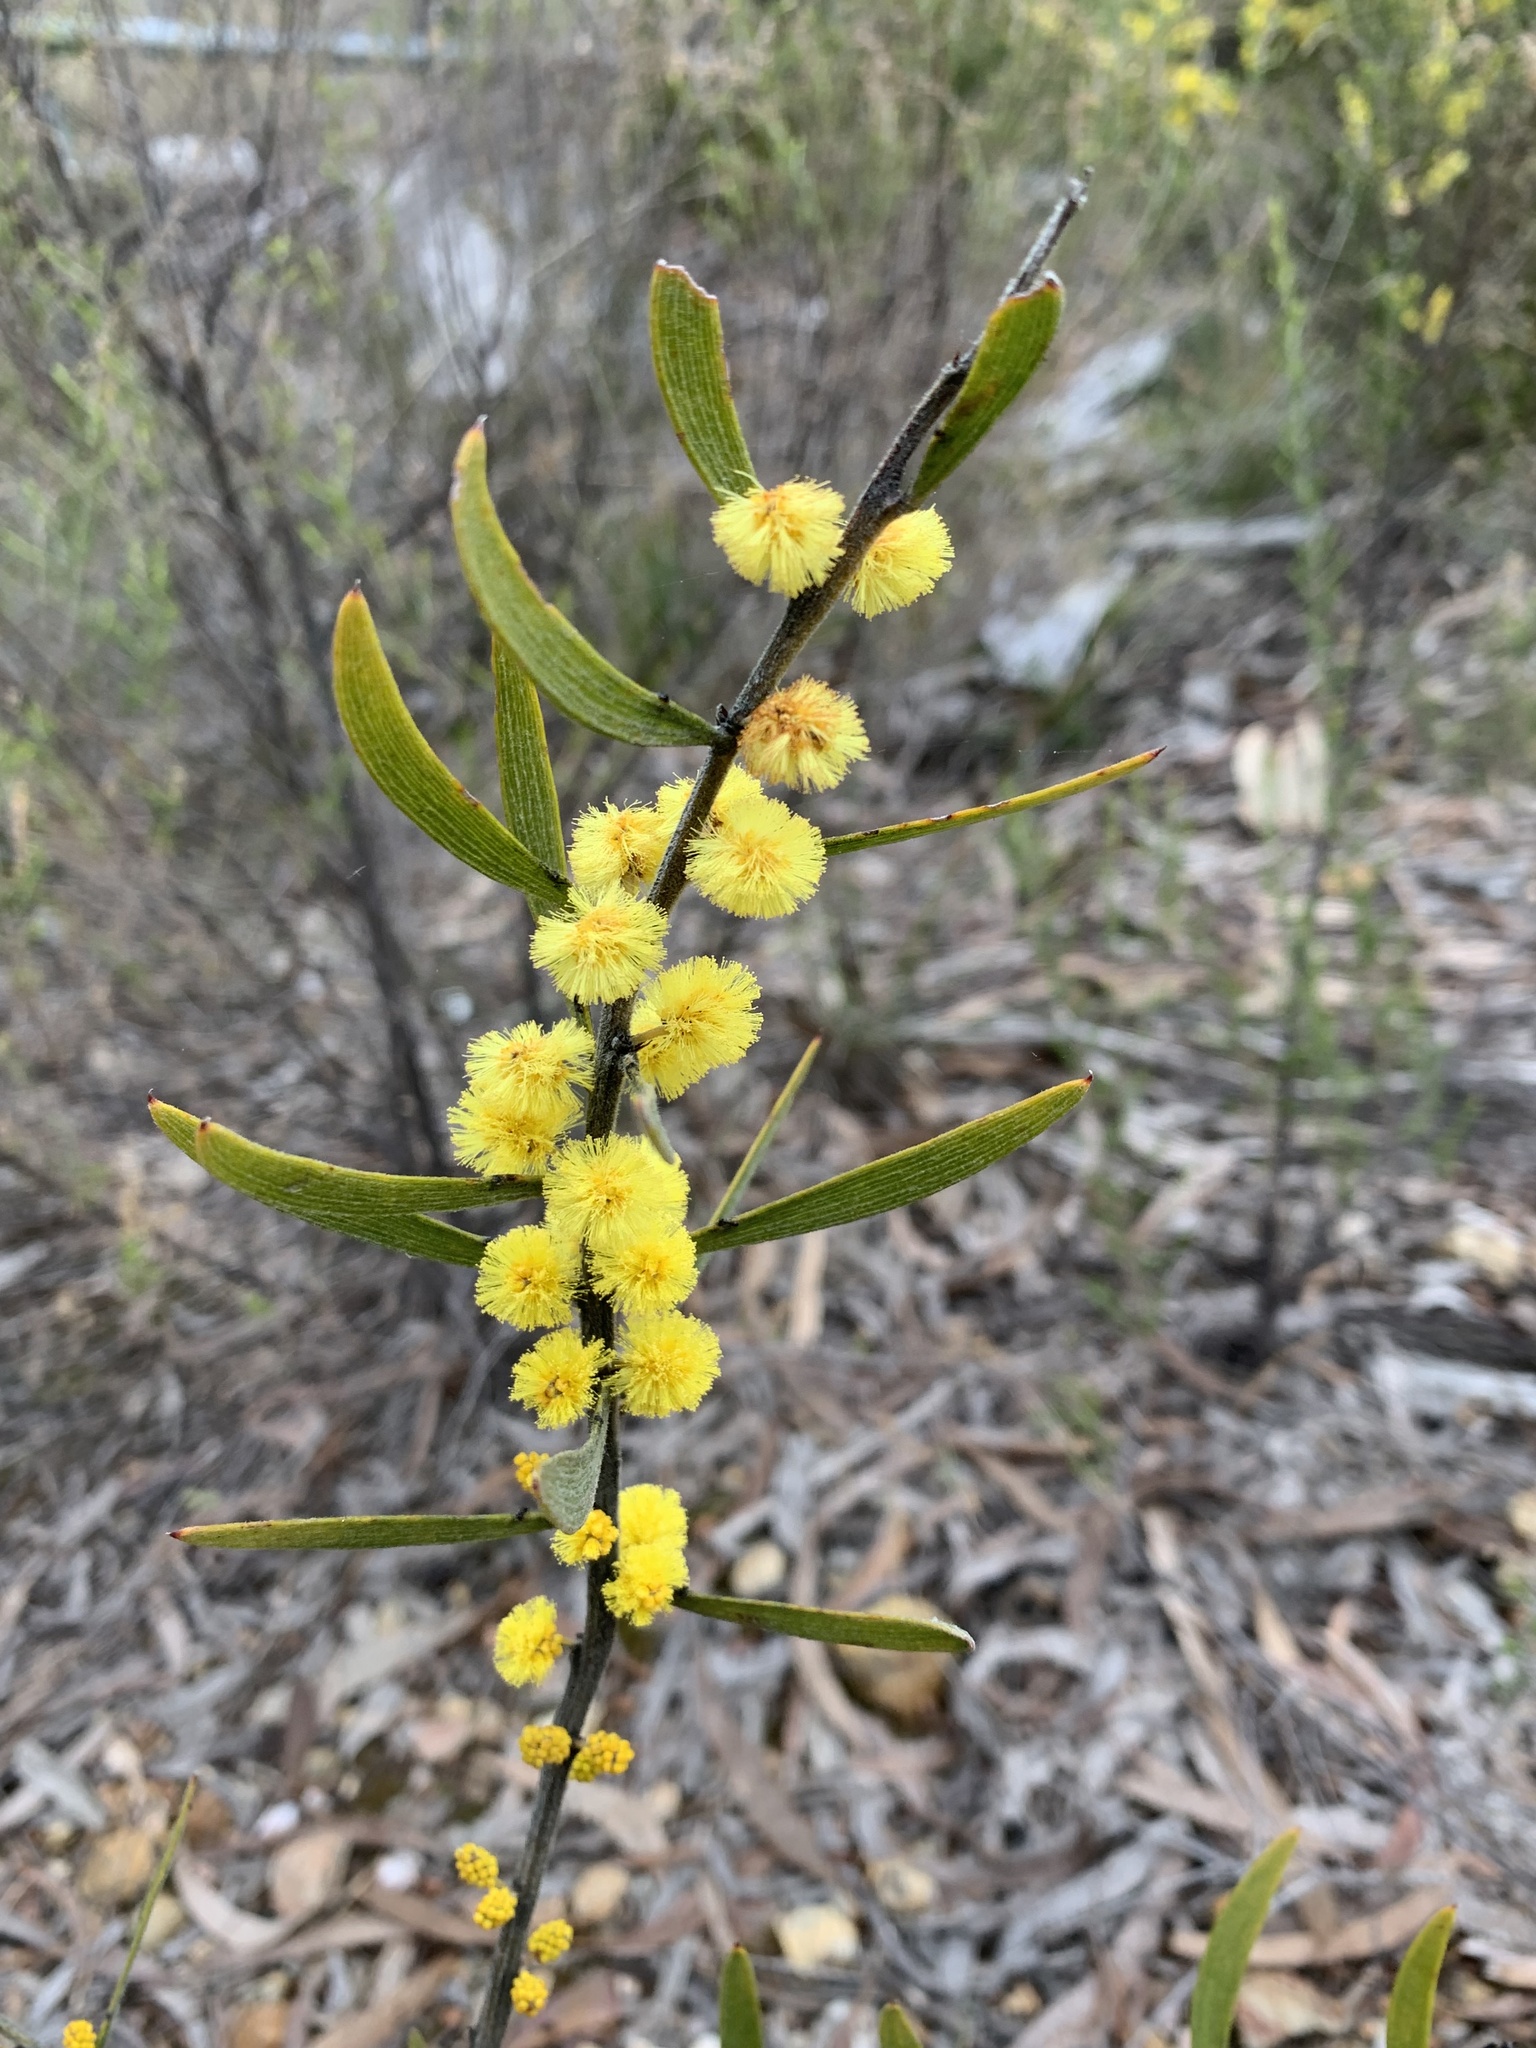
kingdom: Plantae
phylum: Tracheophyta
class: Magnoliopsida
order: Fabales
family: Fabaceae
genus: Acacia
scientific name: Acacia lanigera
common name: Hairy wattle
